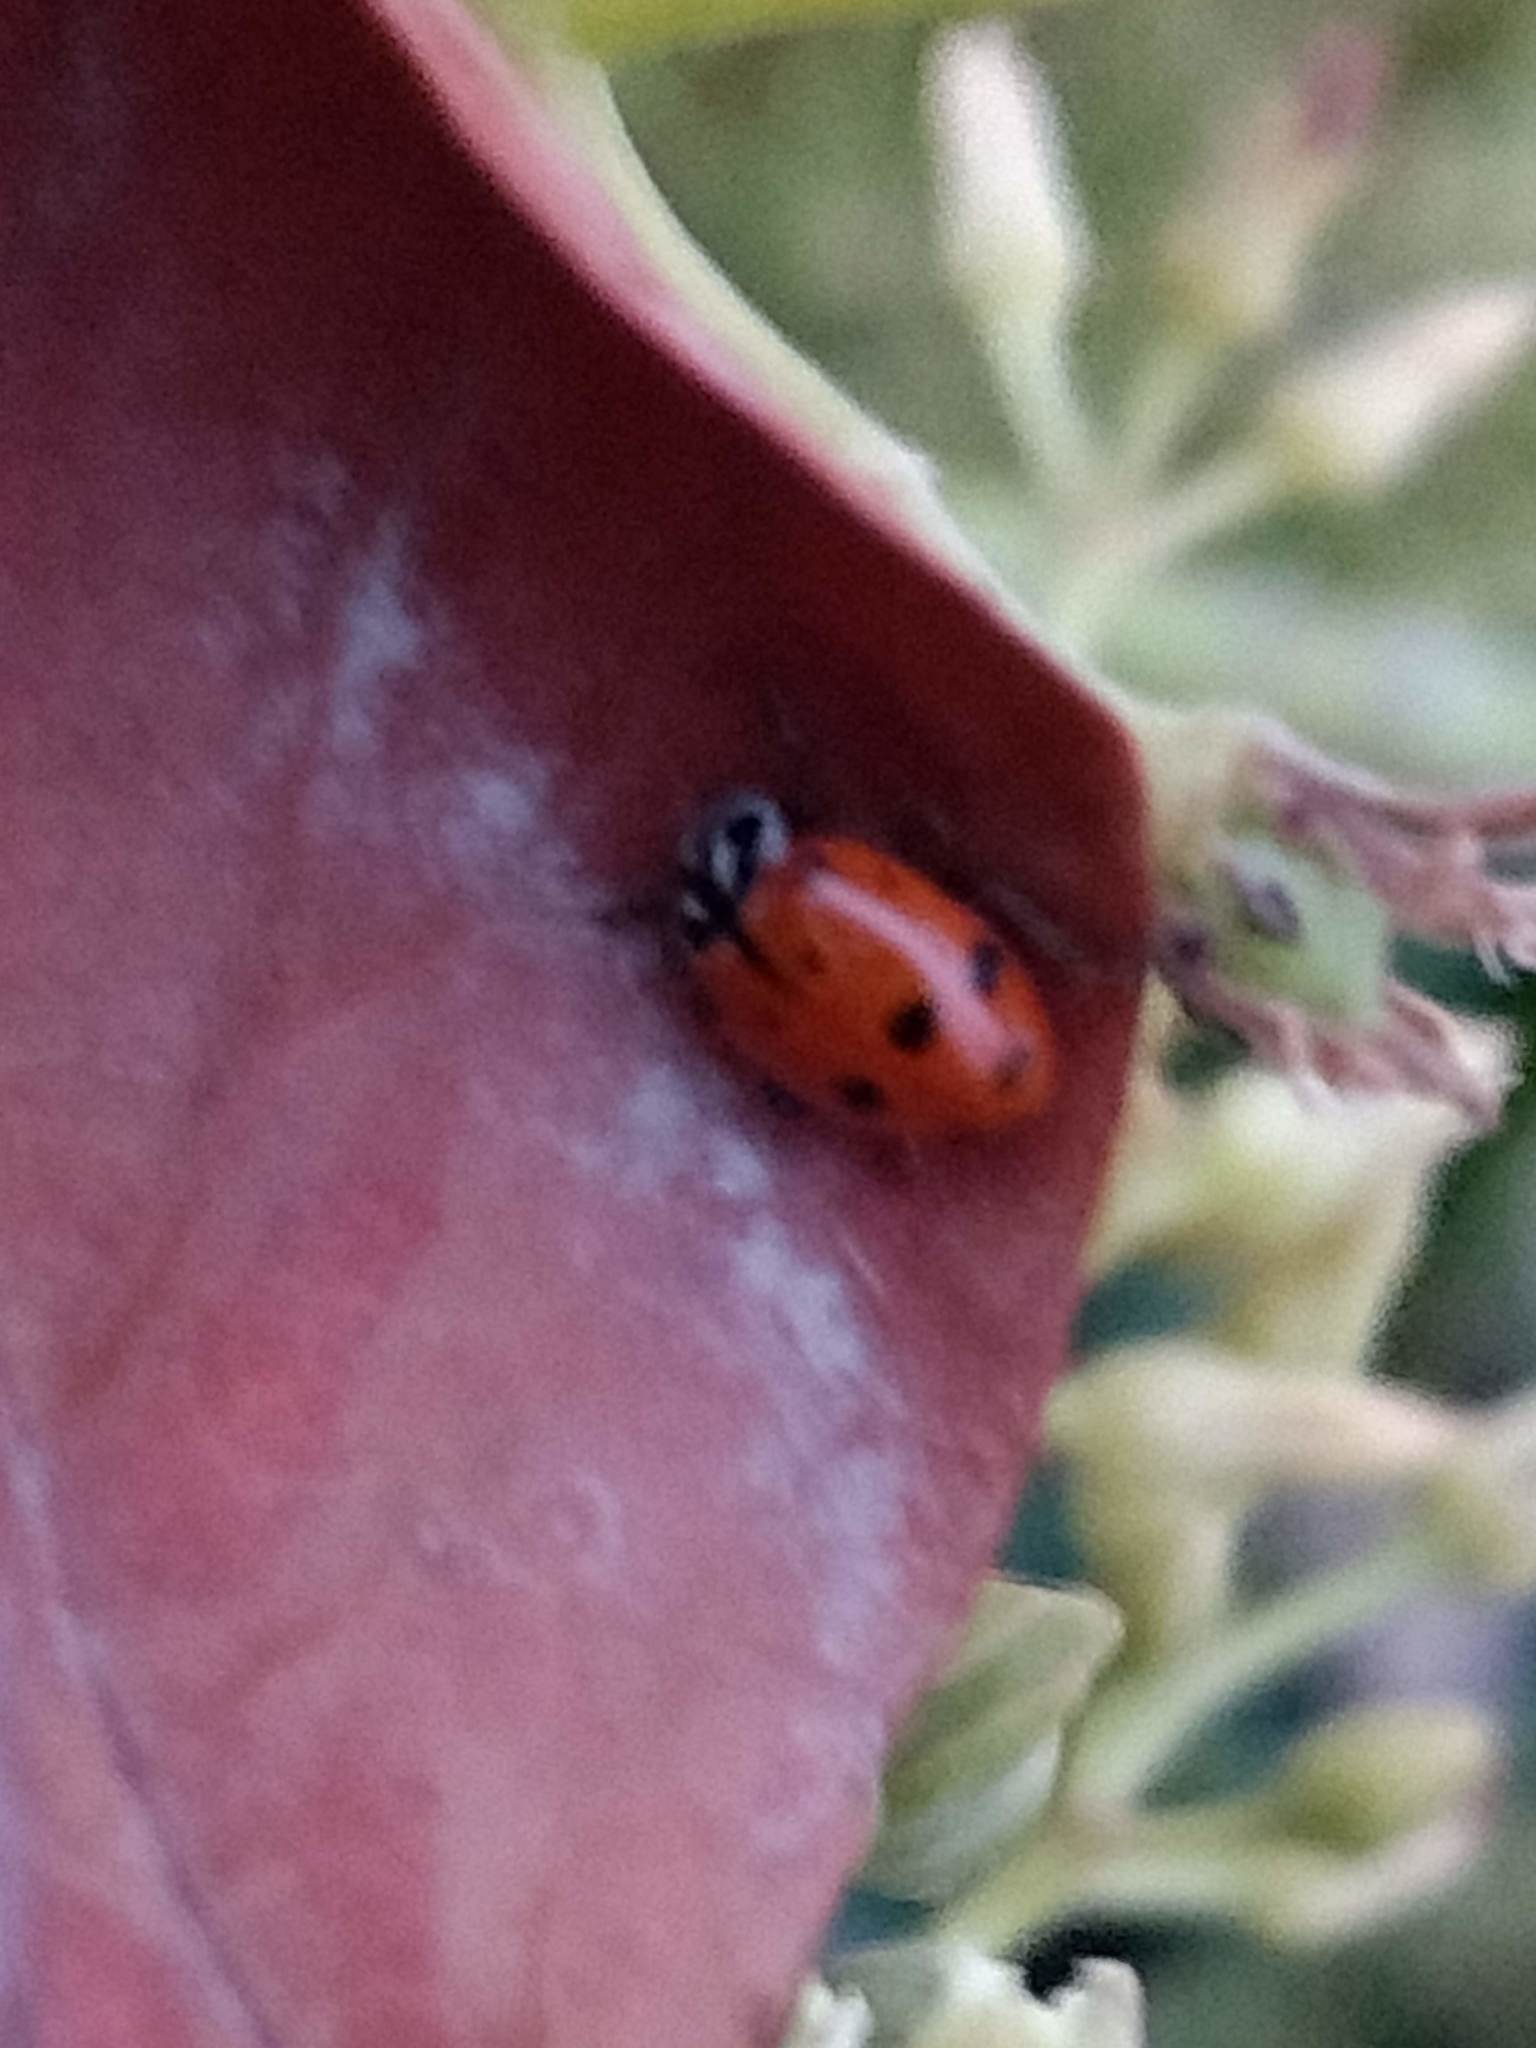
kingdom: Animalia
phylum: Arthropoda
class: Insecta
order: Coleoptera
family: Coccinellidae
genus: Hippodamia
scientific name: Hippodamia convergens
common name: Convergent lady beetle
